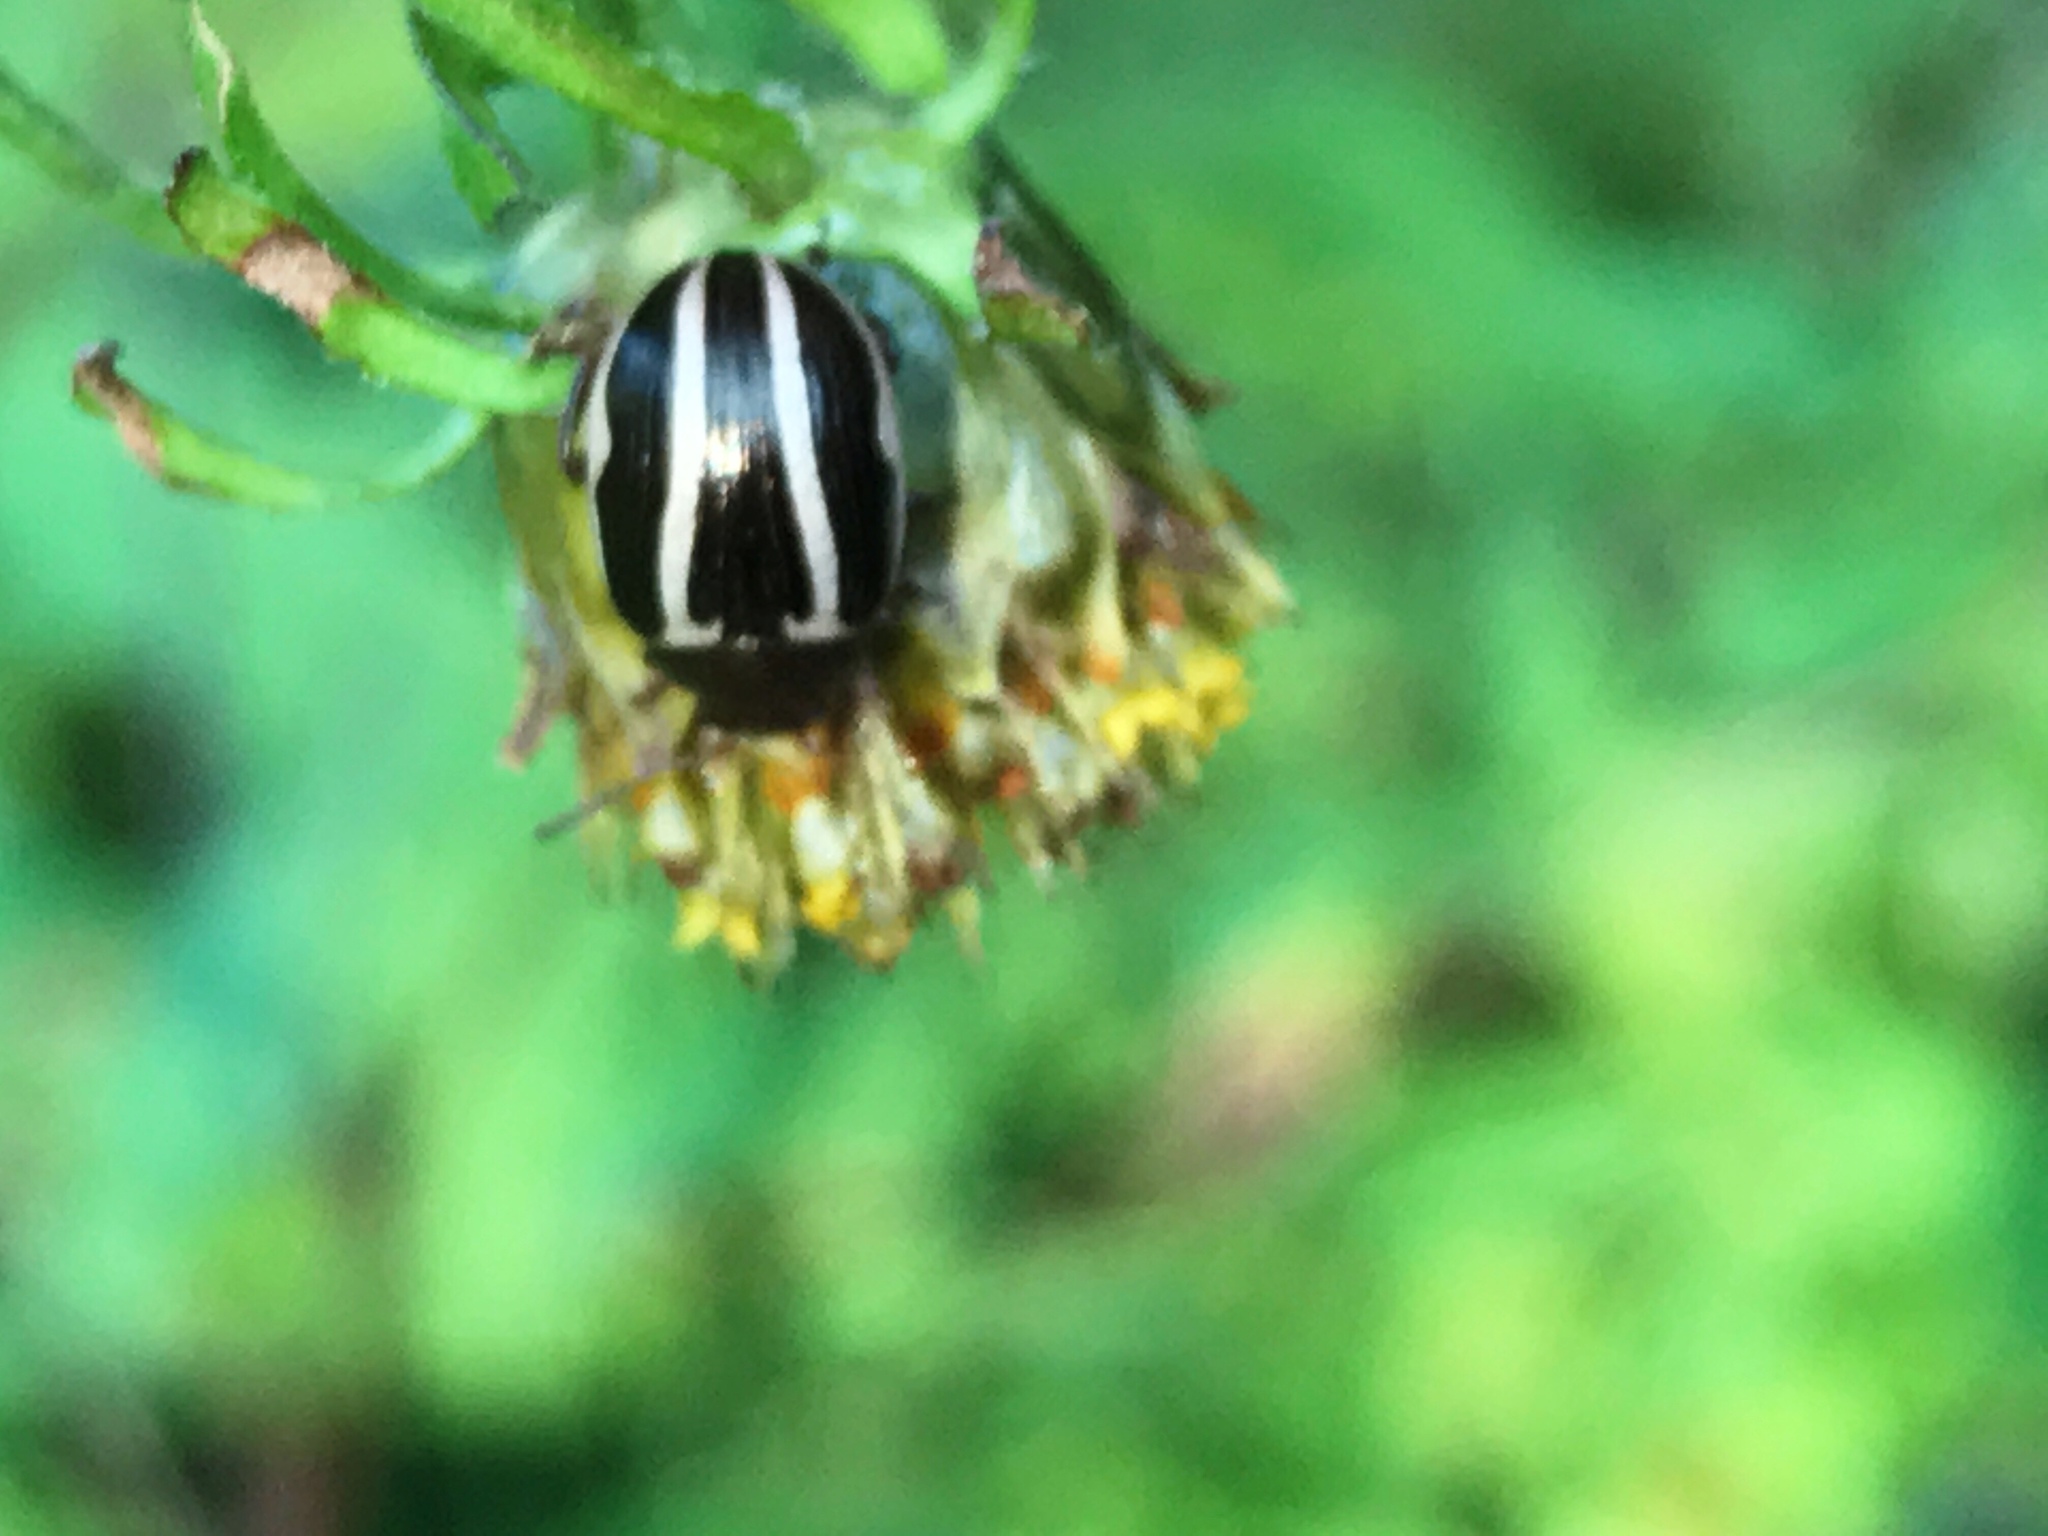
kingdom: Animalia
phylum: Arthropoda
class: Insecta
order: Coleoptera
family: Chrysomelidae
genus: Calligrapha
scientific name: Calligrapha
